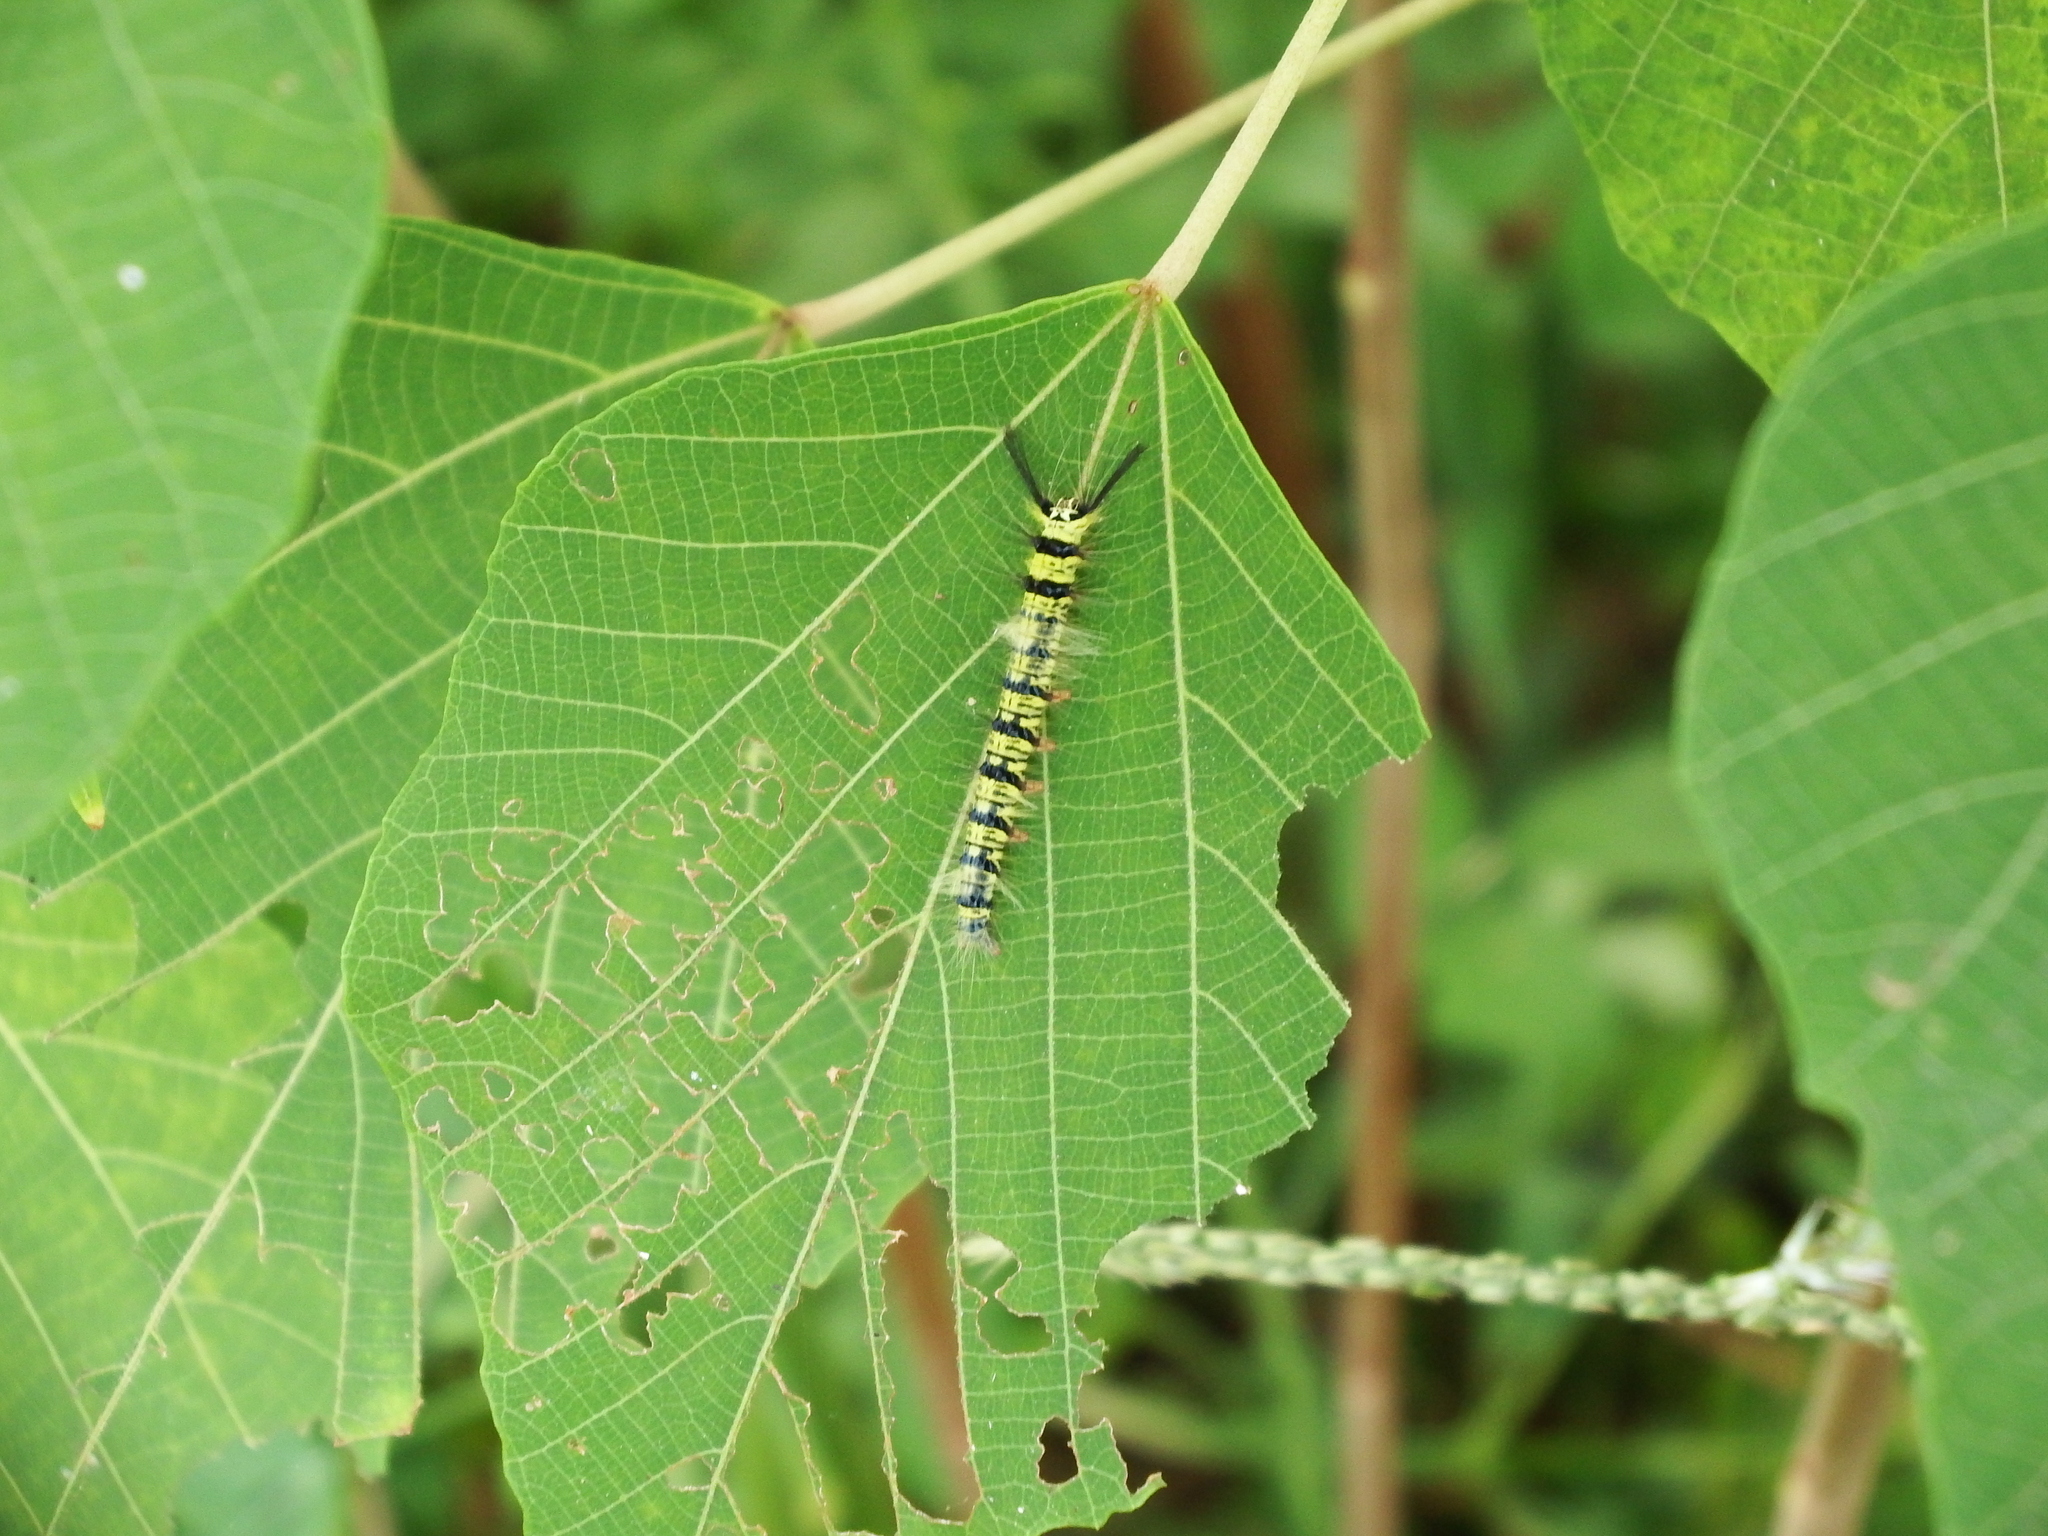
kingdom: Animalia
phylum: Arthropoda
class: Insecta
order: Lepidoptera
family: Lasiocampidae
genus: Trabala
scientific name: Trabala vishnou
